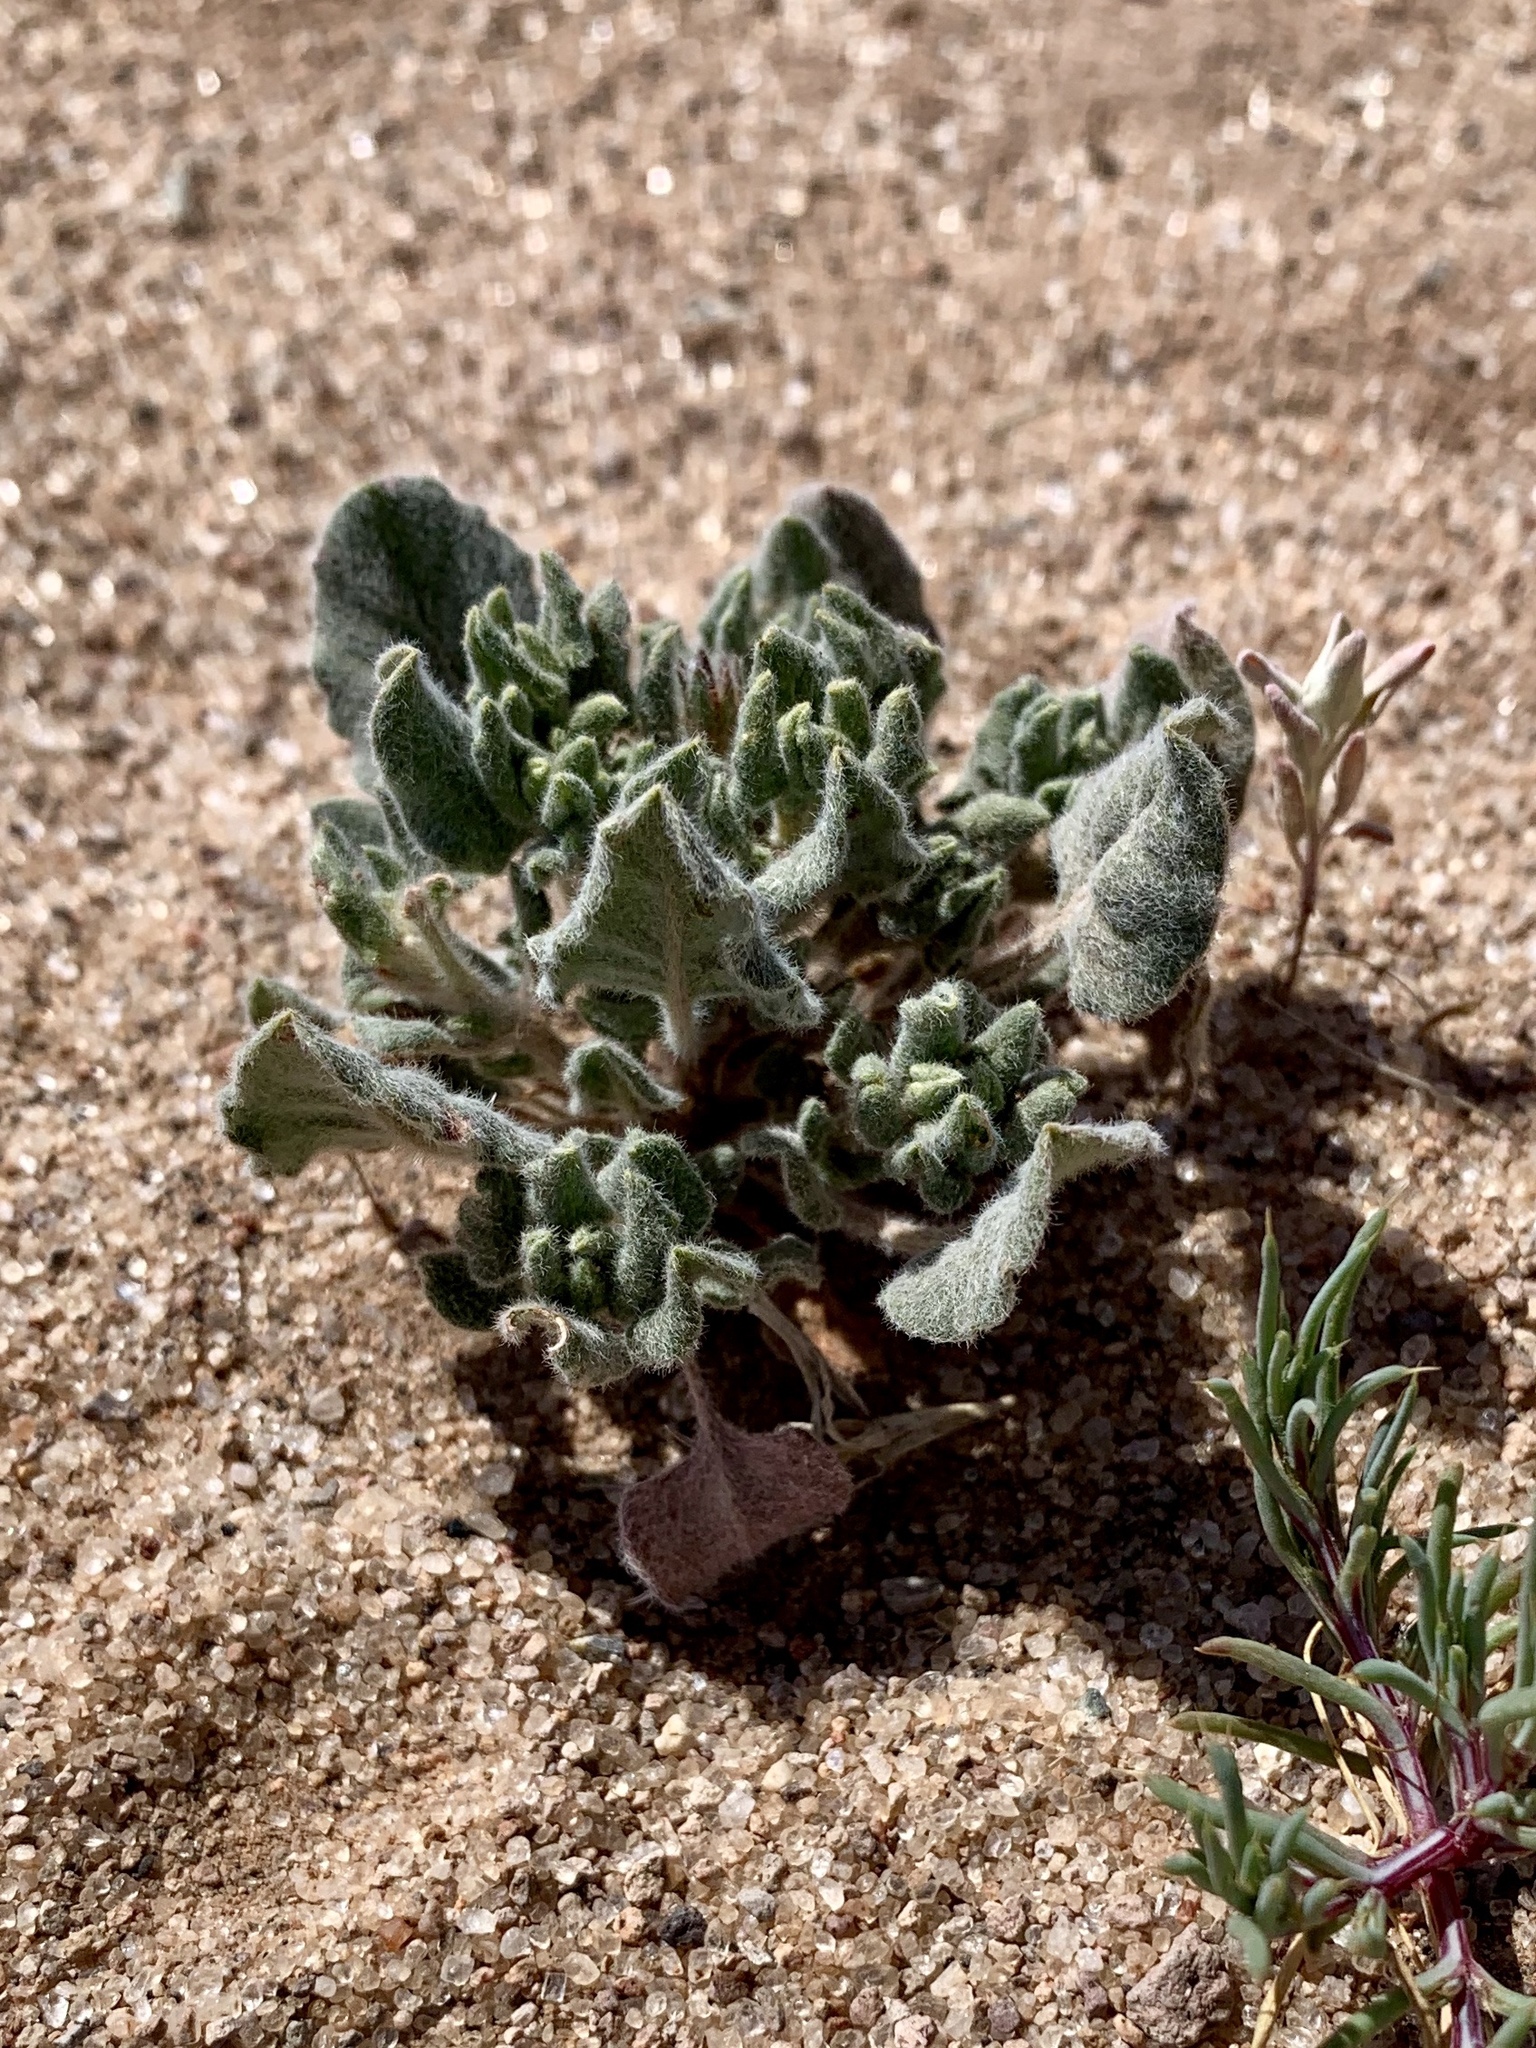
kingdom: Plantae
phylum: Tracheophyta
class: Magnoliopsida
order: Caryophyllales
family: Polygonaceae
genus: Eriogonum
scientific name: Eriogonum abertianum
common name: Abert's wild buckwheat
